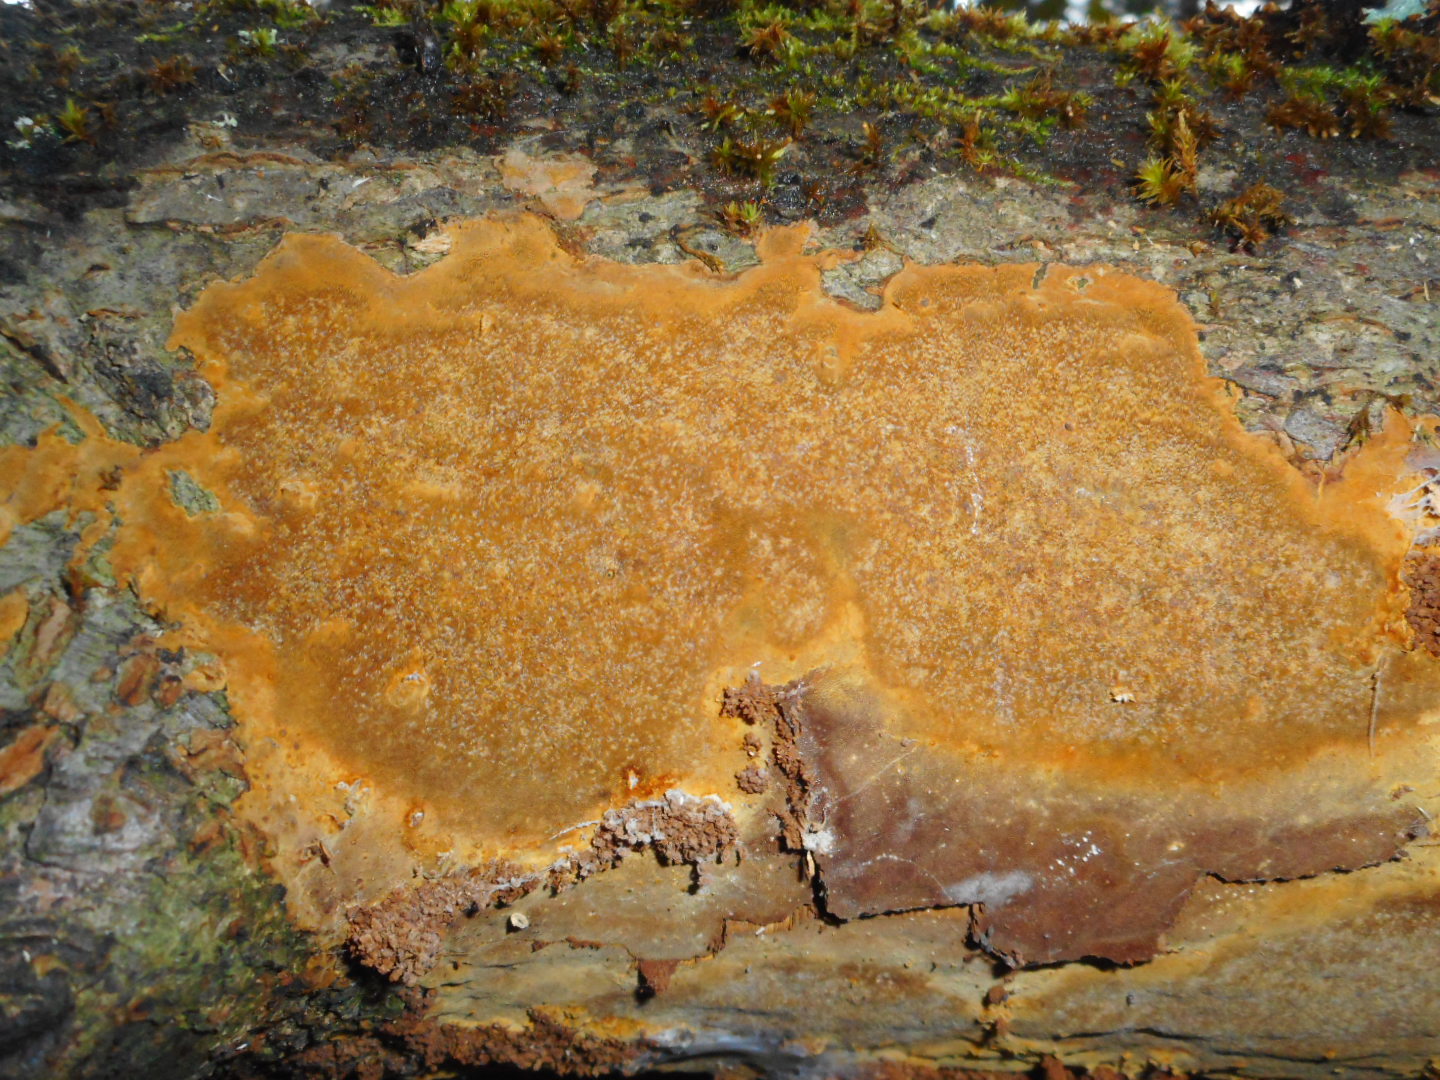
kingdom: Fungi
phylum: Basidiomycota
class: Agaricomycetes
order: Hymenochaetales
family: Hymenochaetaceae
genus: Fomitiporia
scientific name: Fomitiporia punctata
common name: Elbowpatch crust
